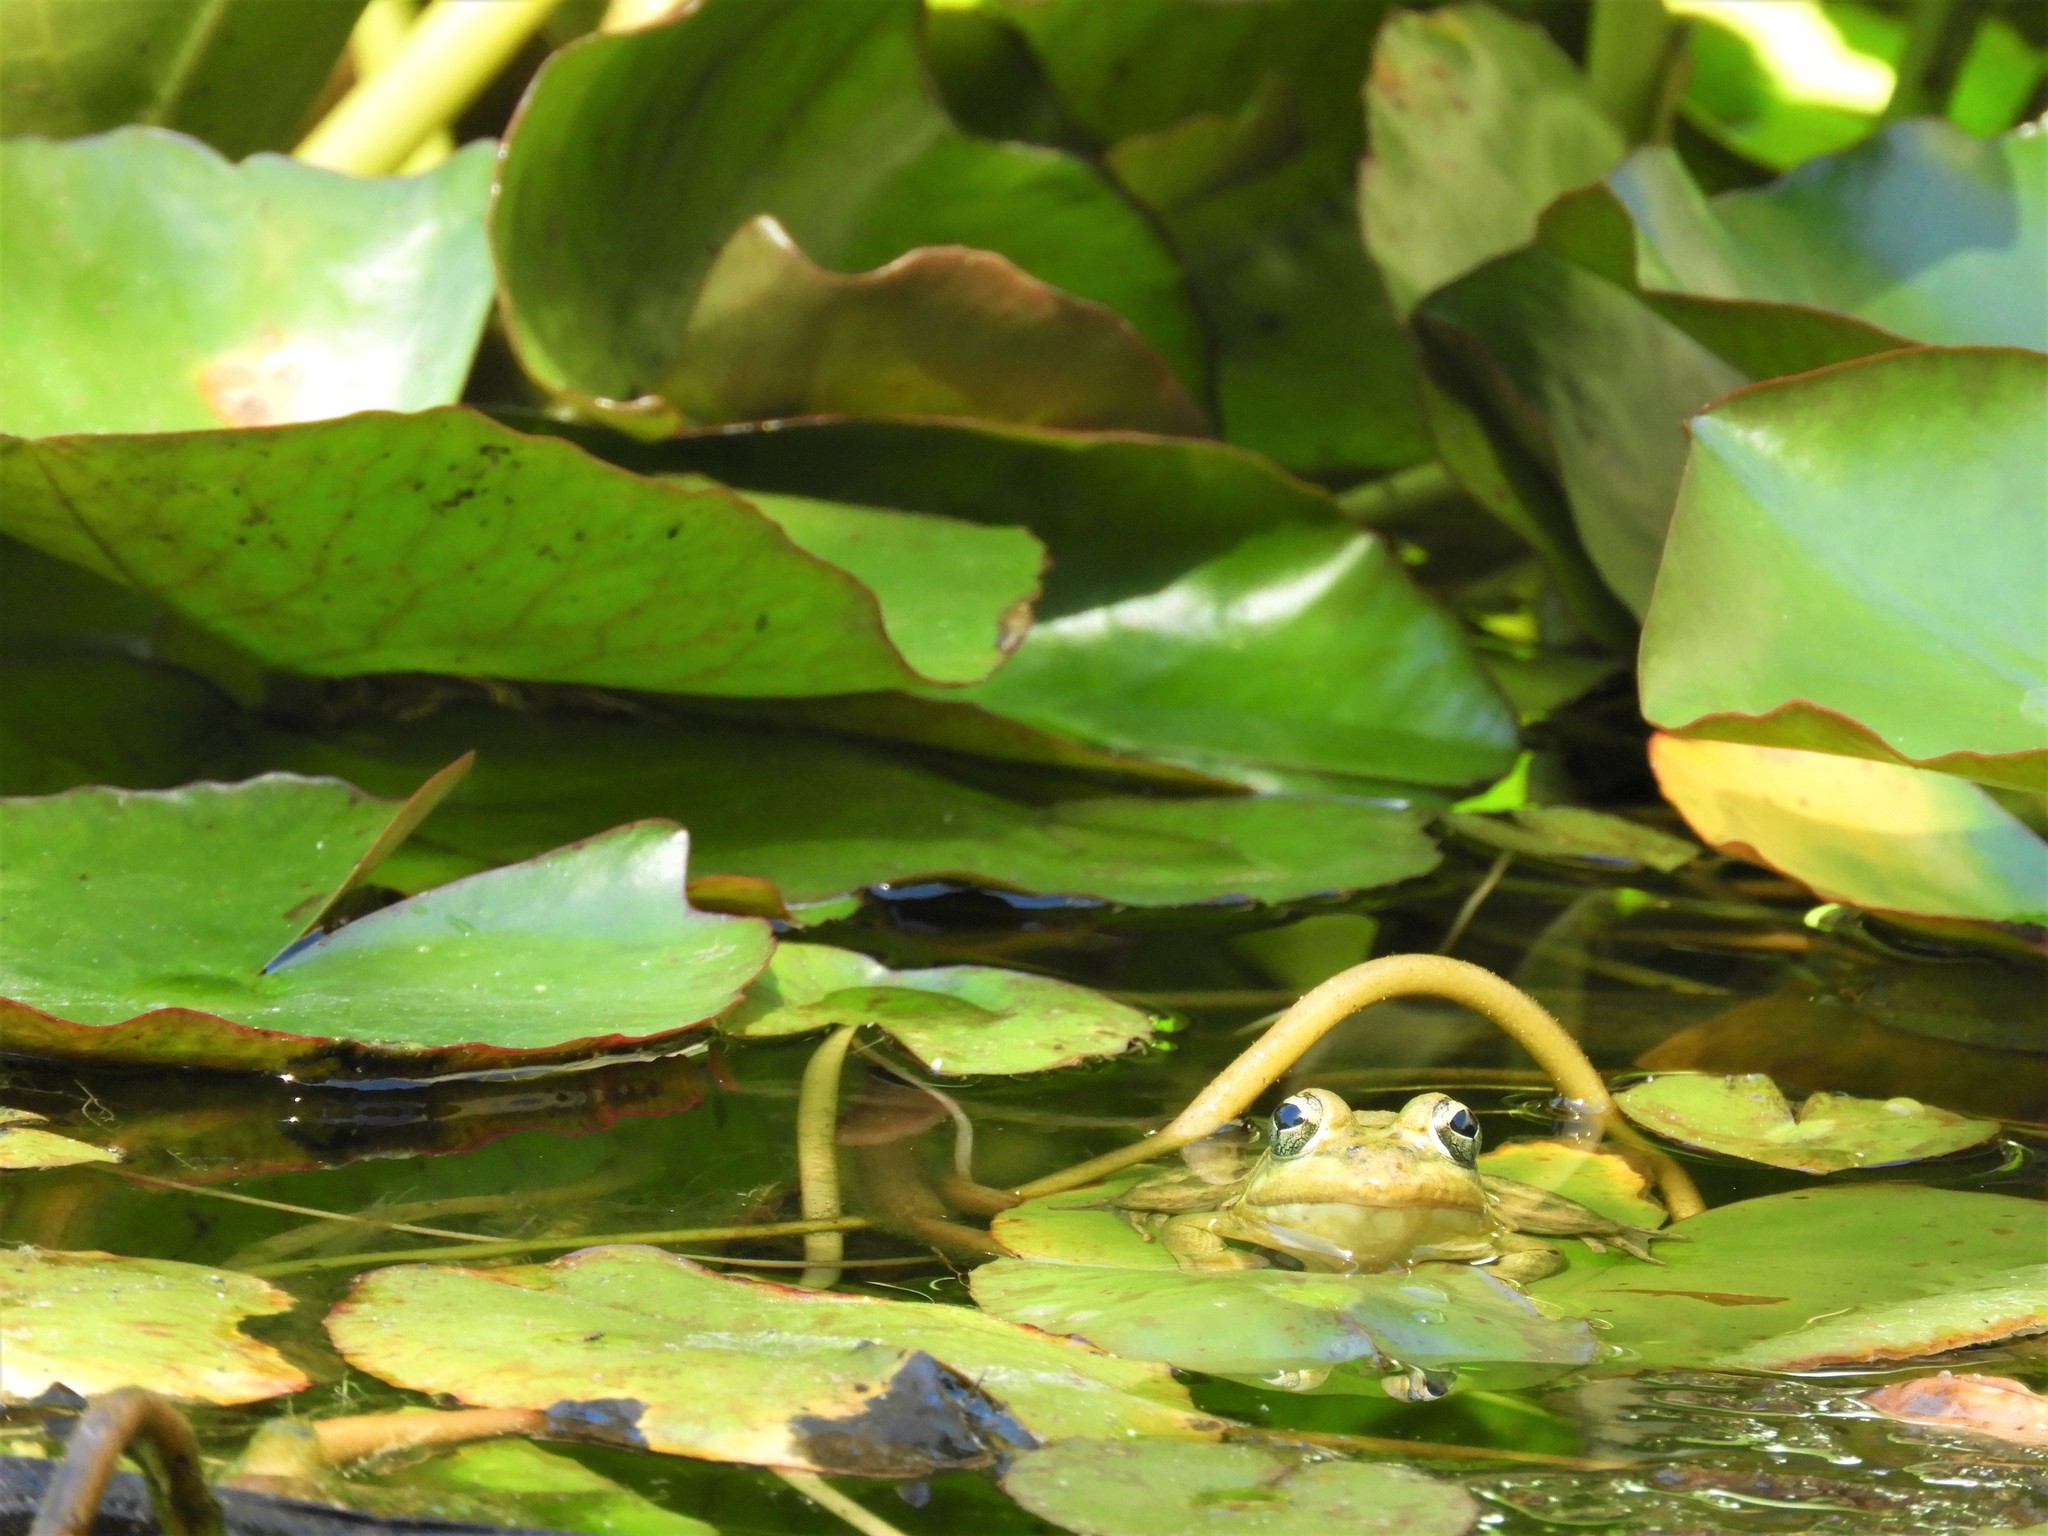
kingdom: Animalia
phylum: Chordata
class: Amphibia
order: Anura
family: Pyxicephalidae
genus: Amietia
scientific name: Amietia fuscigula
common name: Cape rana
